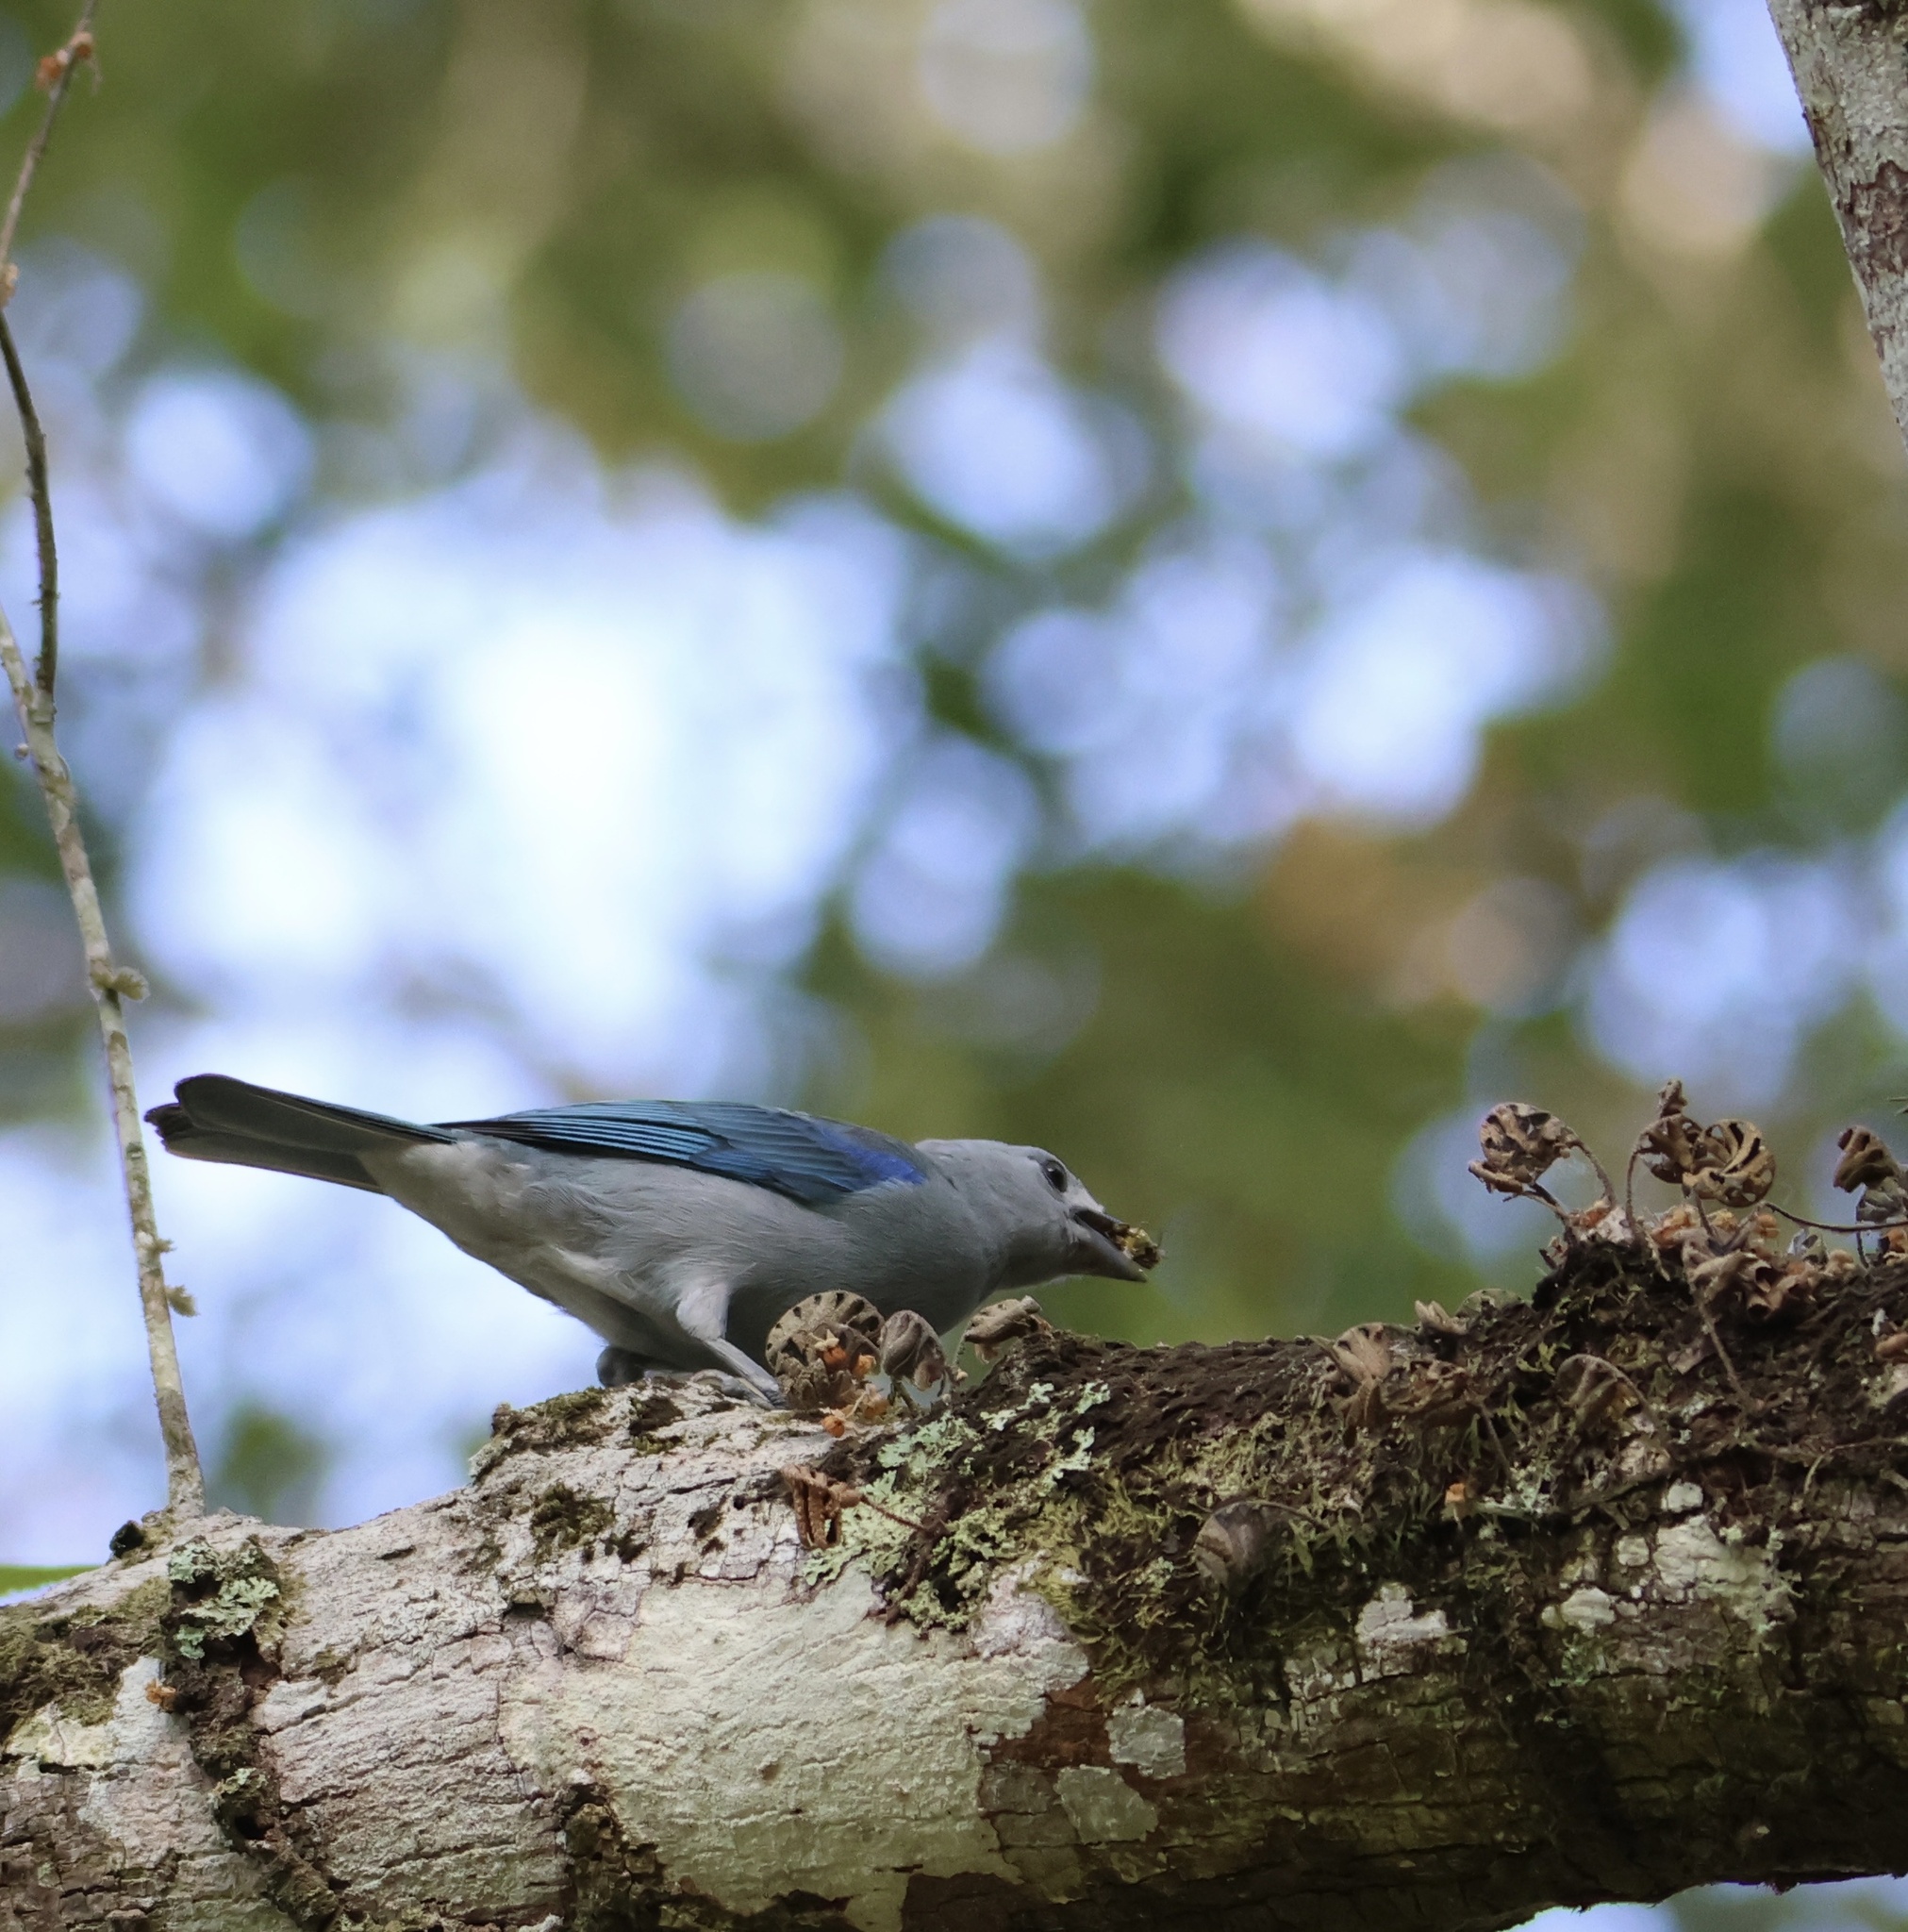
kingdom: Animalia
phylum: Chordata
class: Aves
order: Passeriformes
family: Thraupidae
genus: Thraupis
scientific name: Thraupis episcopus
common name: Blue-grey tanager
